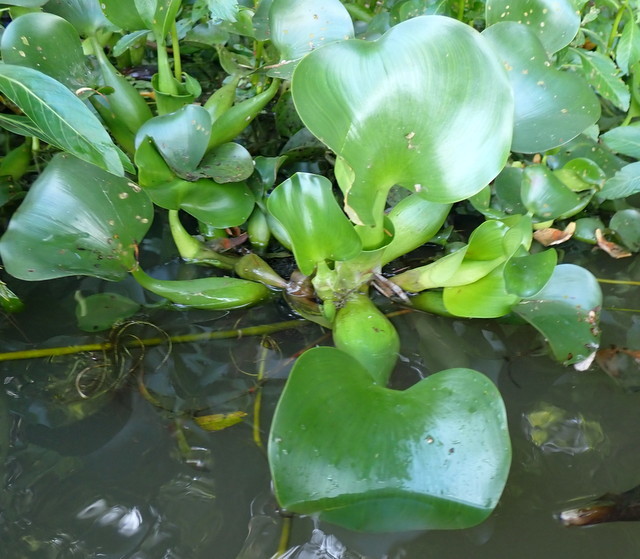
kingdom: Plantae
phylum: Tracheophyta
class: Liliopsida
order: Commelinales
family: Pontederiaceae
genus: Pontederia
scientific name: Pontederia crassipes
